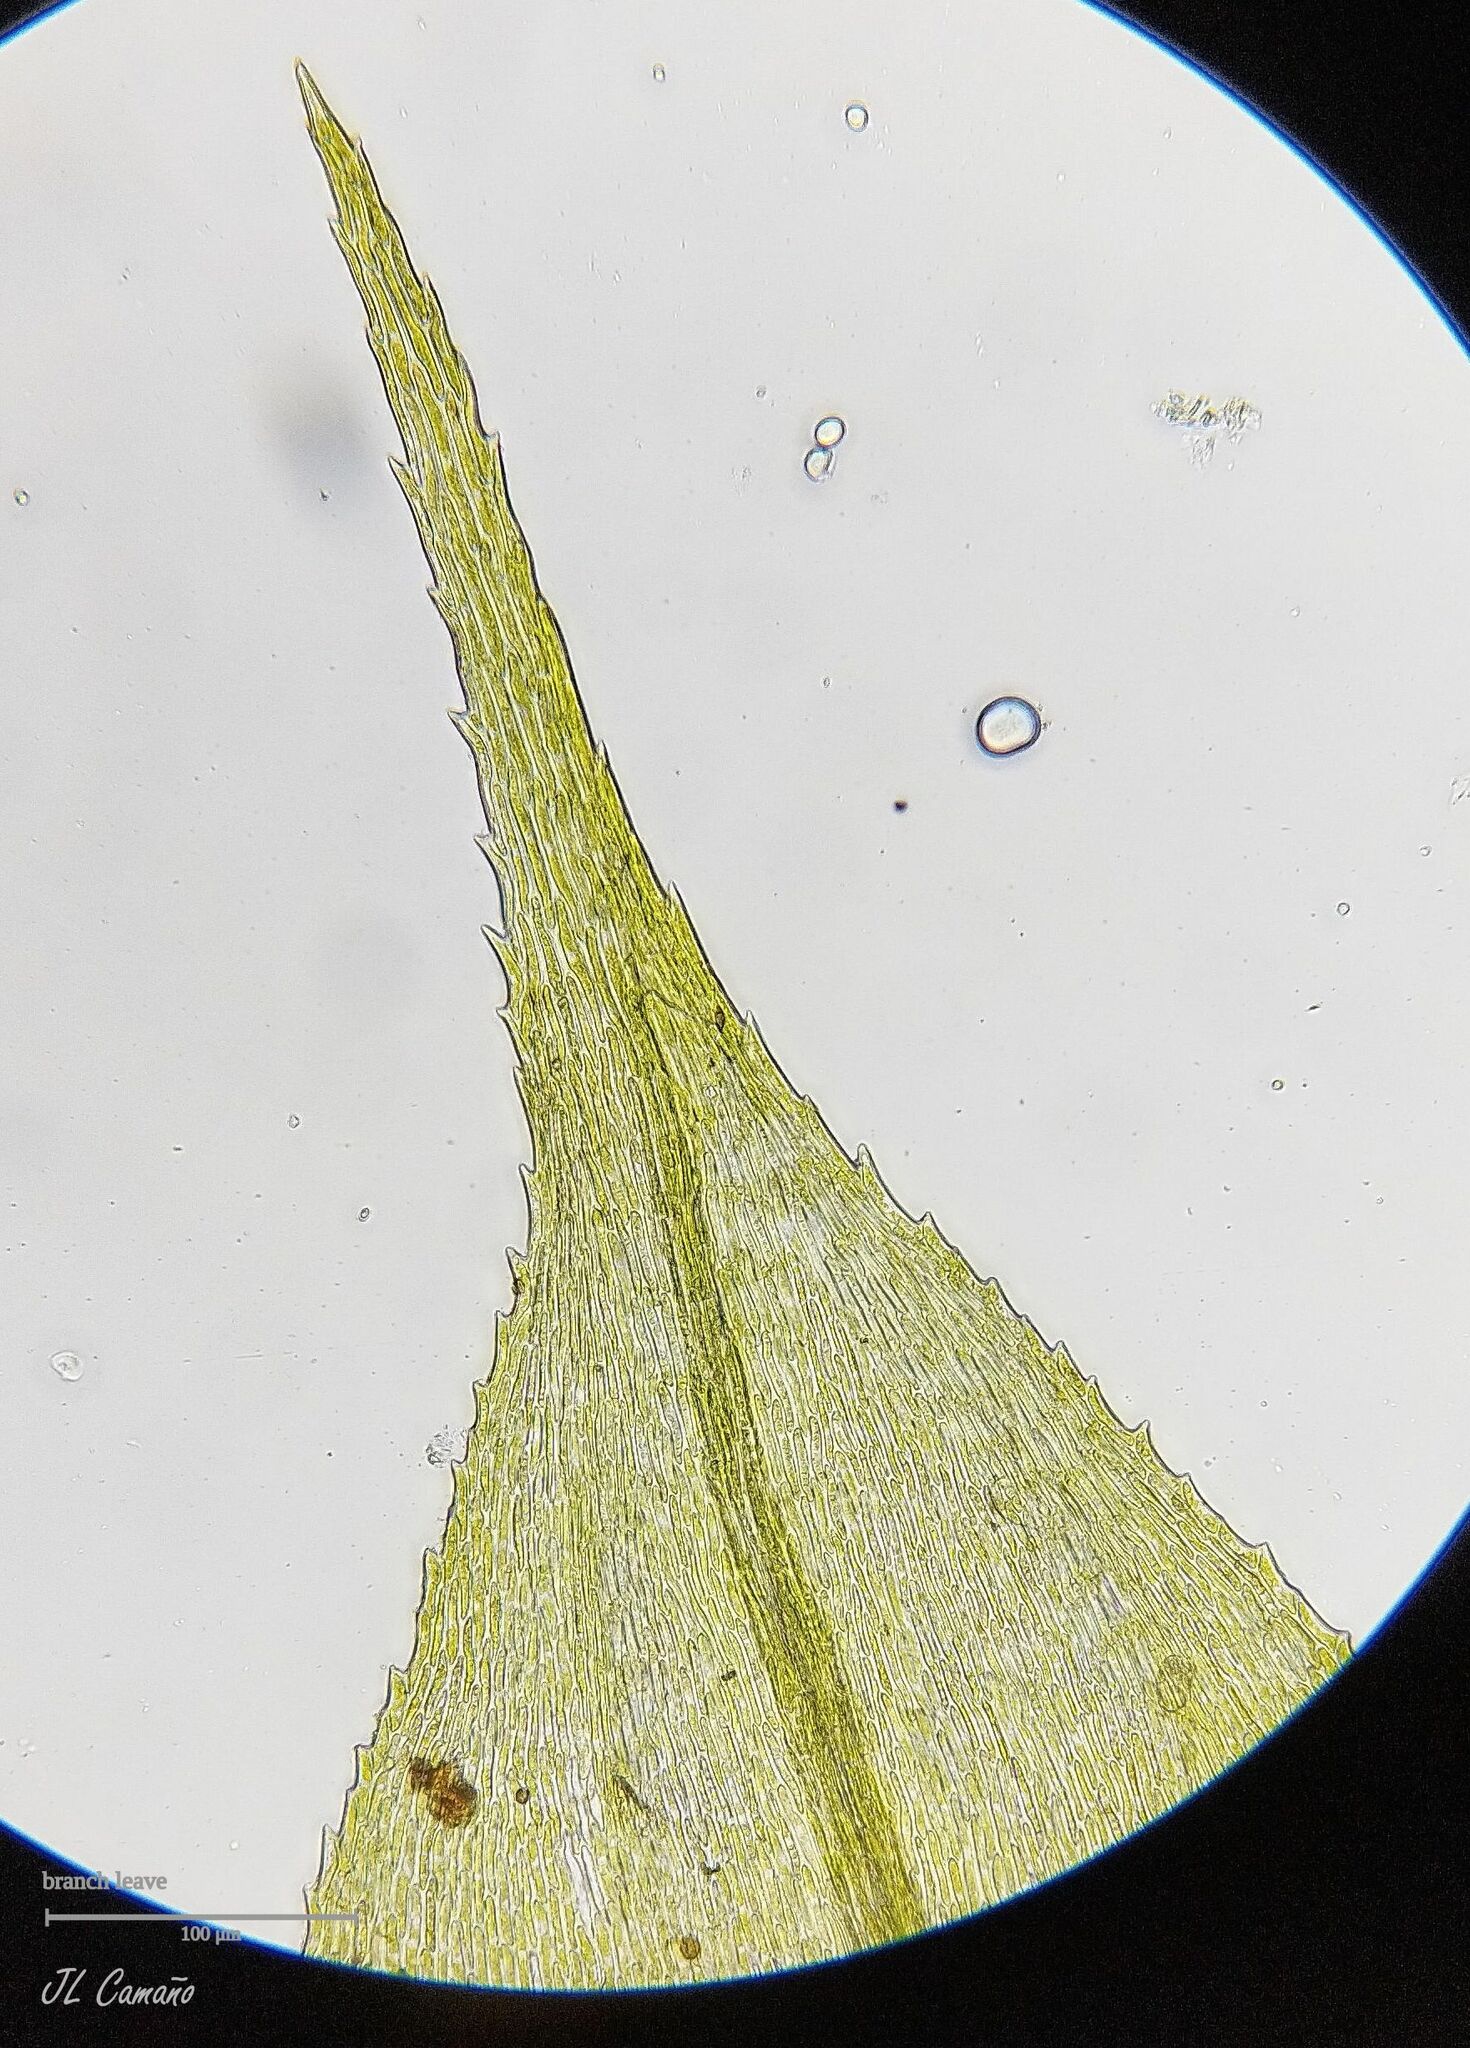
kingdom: Plantae
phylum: Bryophyta
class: Bryopsida
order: Hypnales
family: Brachytheciaceae
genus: Kindbergia
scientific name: Kindbergia praelonga
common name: Slender beaked moss
